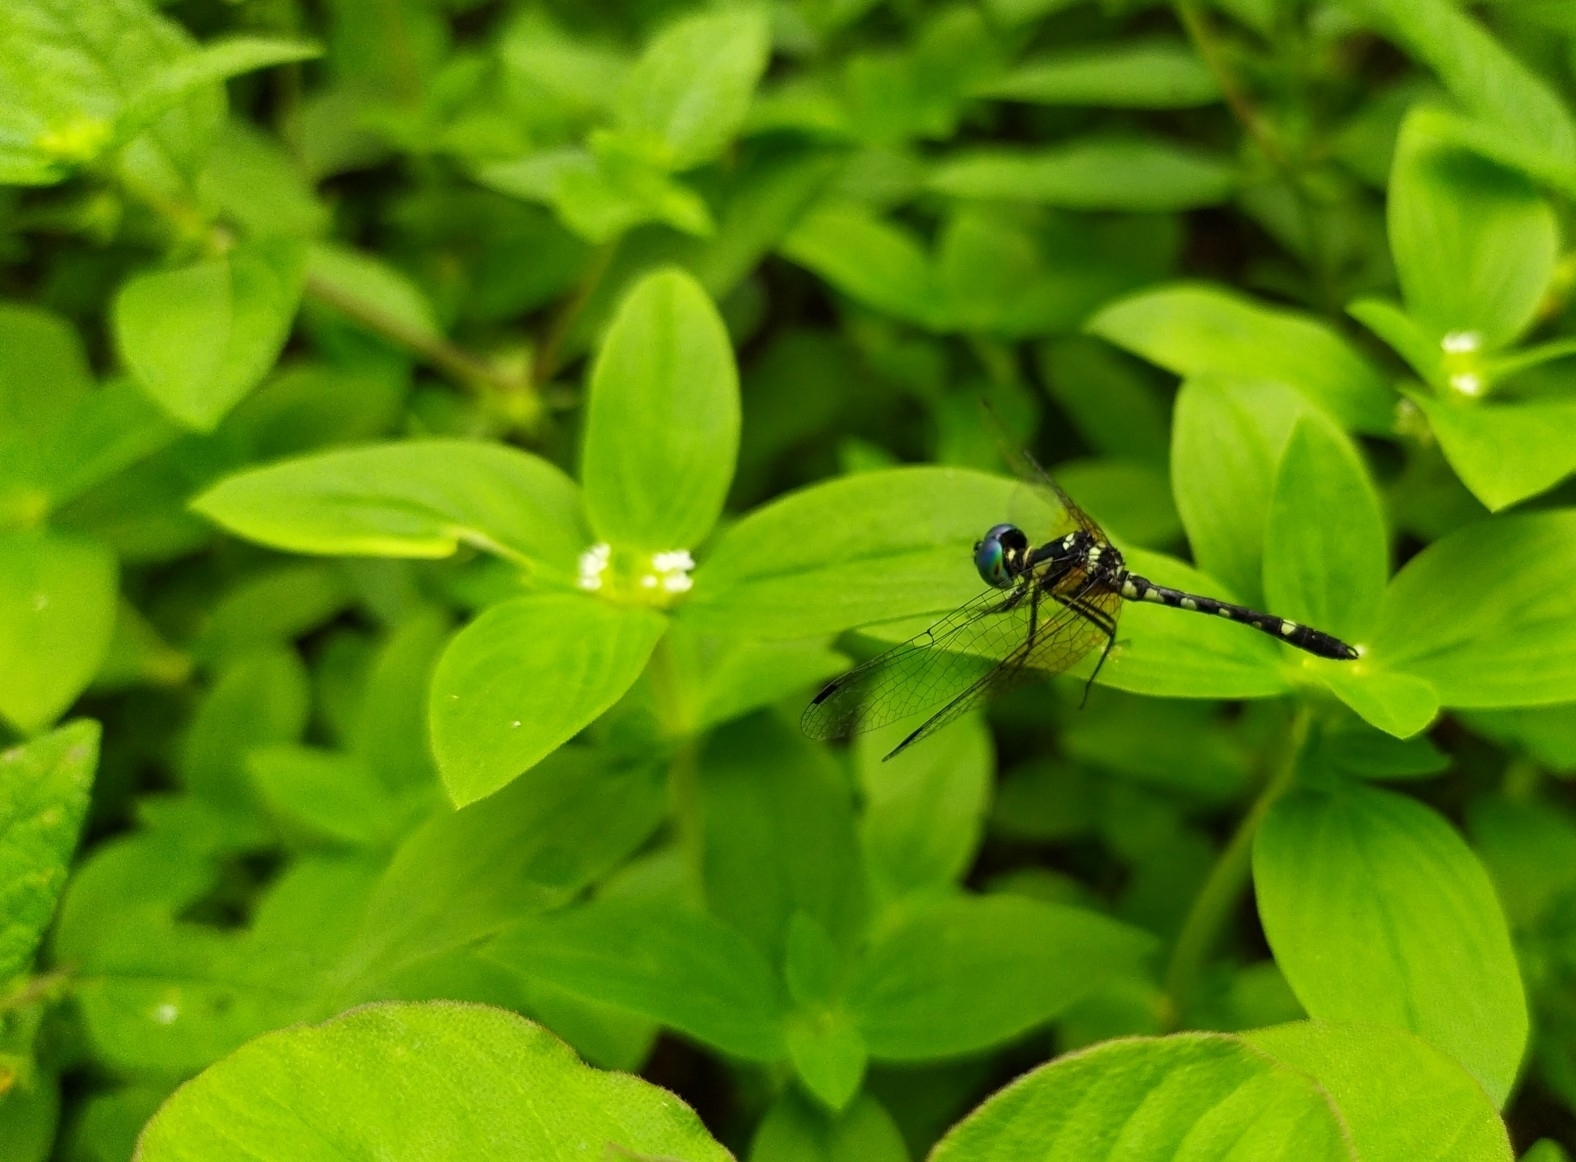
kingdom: Animalia
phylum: Arthropoda
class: Insecta
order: Odonata
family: Libellulidae
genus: Tetrathemis
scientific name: Tetrathemis platyptera
